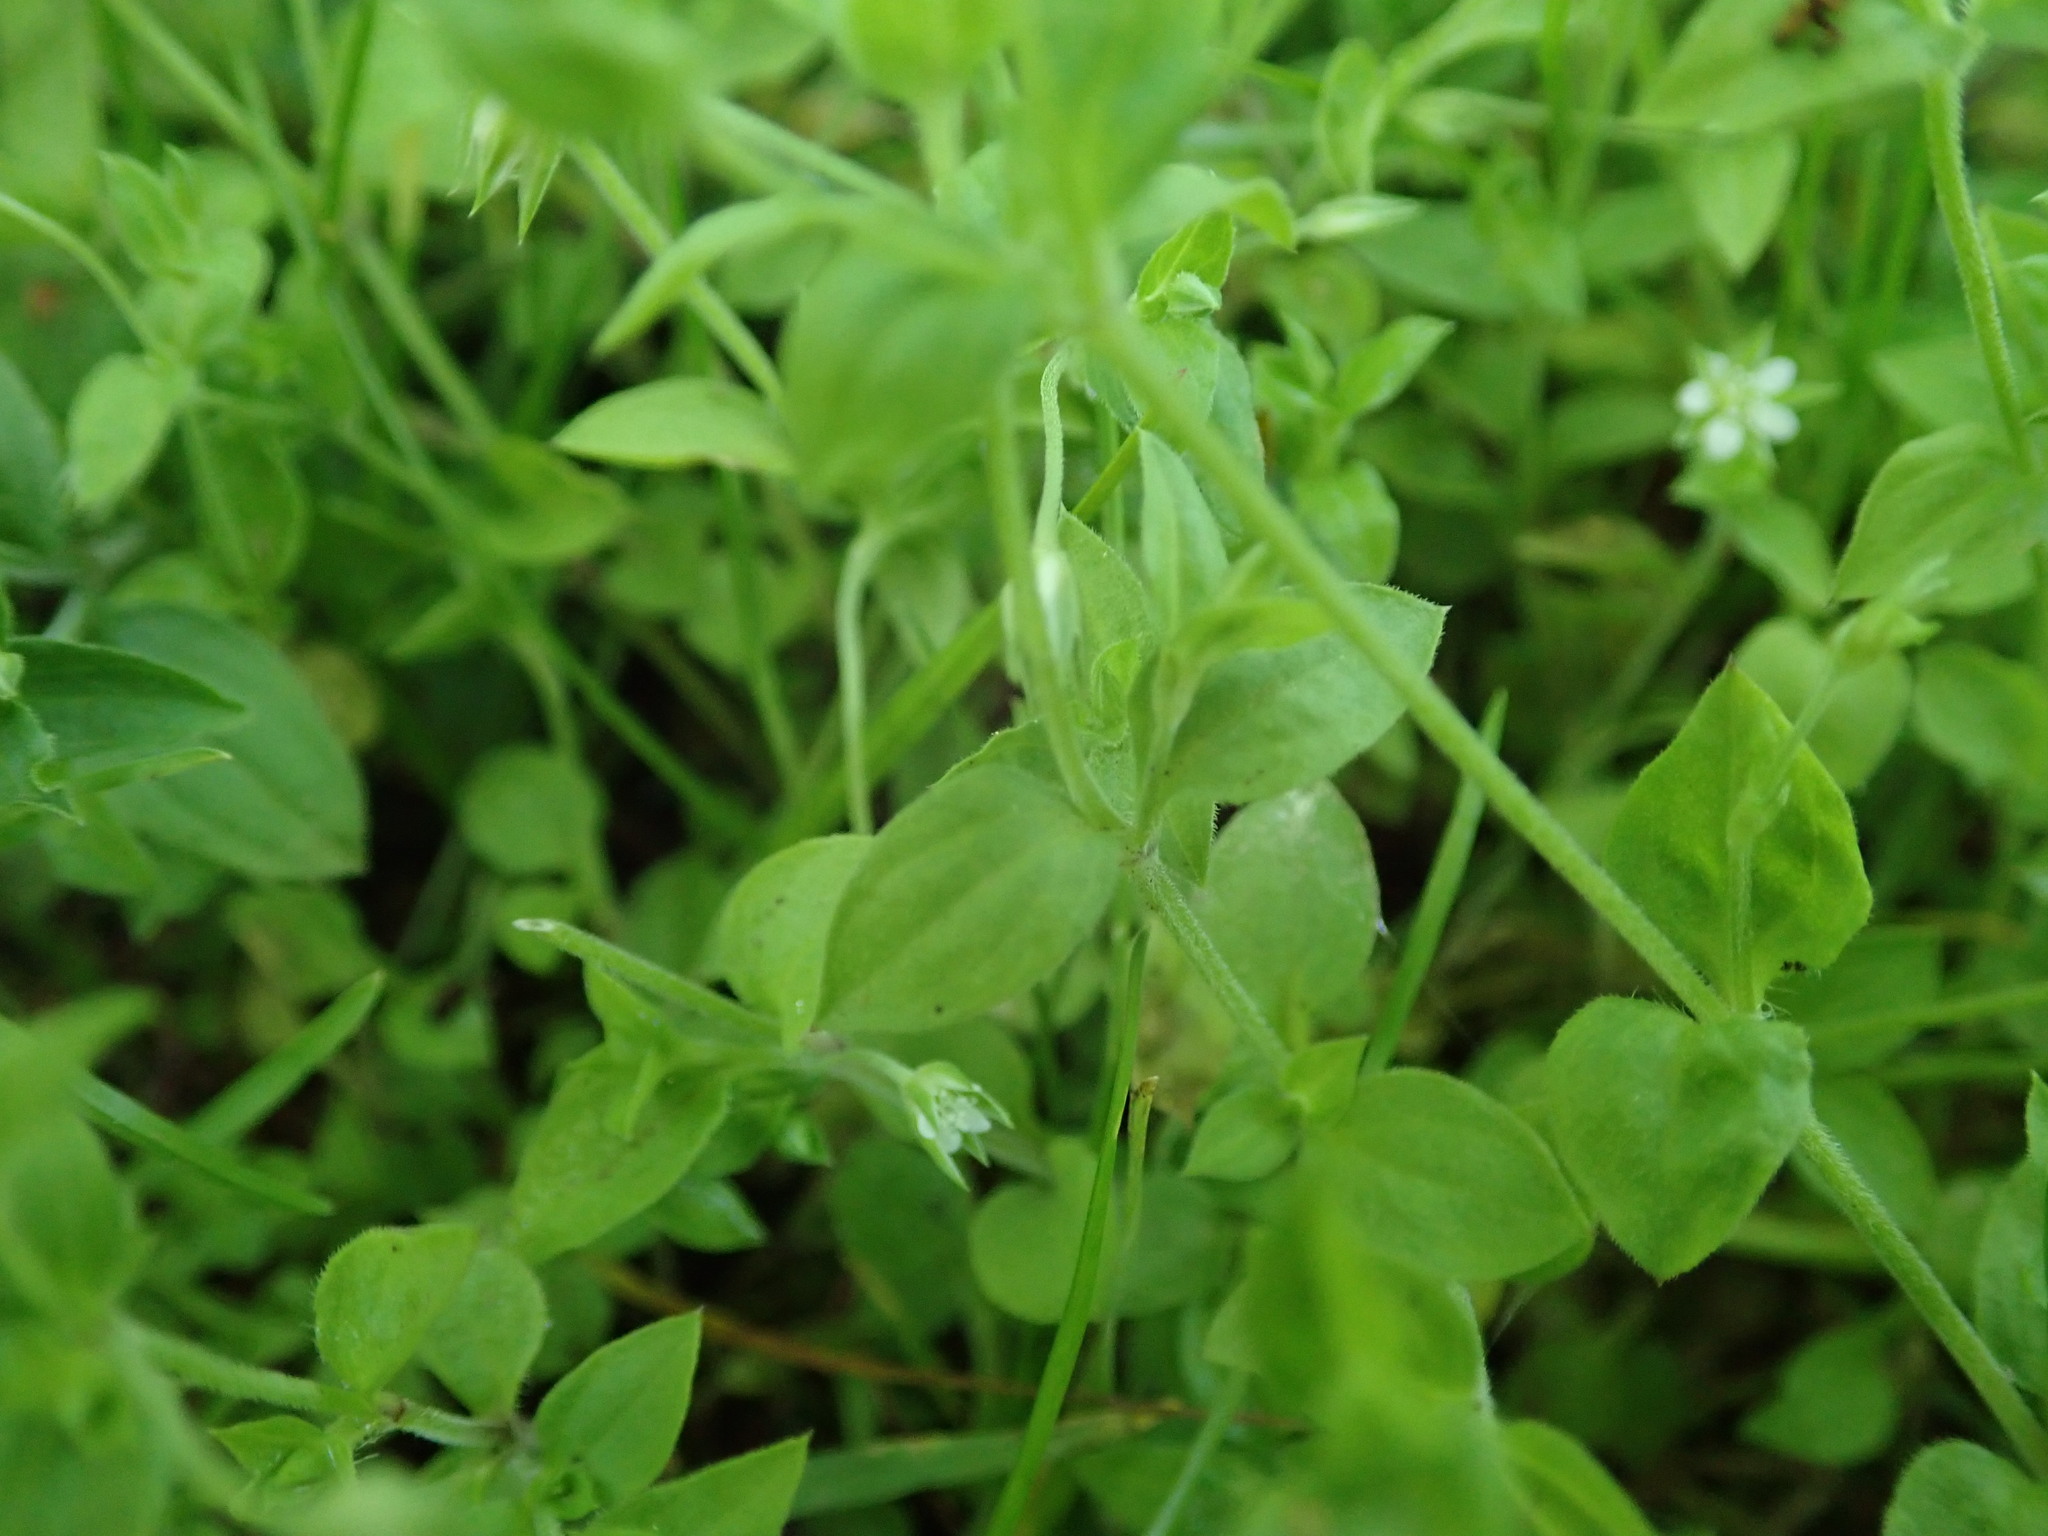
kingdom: Plantae
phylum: Tracheophyta
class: Magnoliopsida
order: Caryophyllales
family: Caryophyllaceae
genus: Moehringia
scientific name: Moehringia trinervia
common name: Three-nerved sandwort
